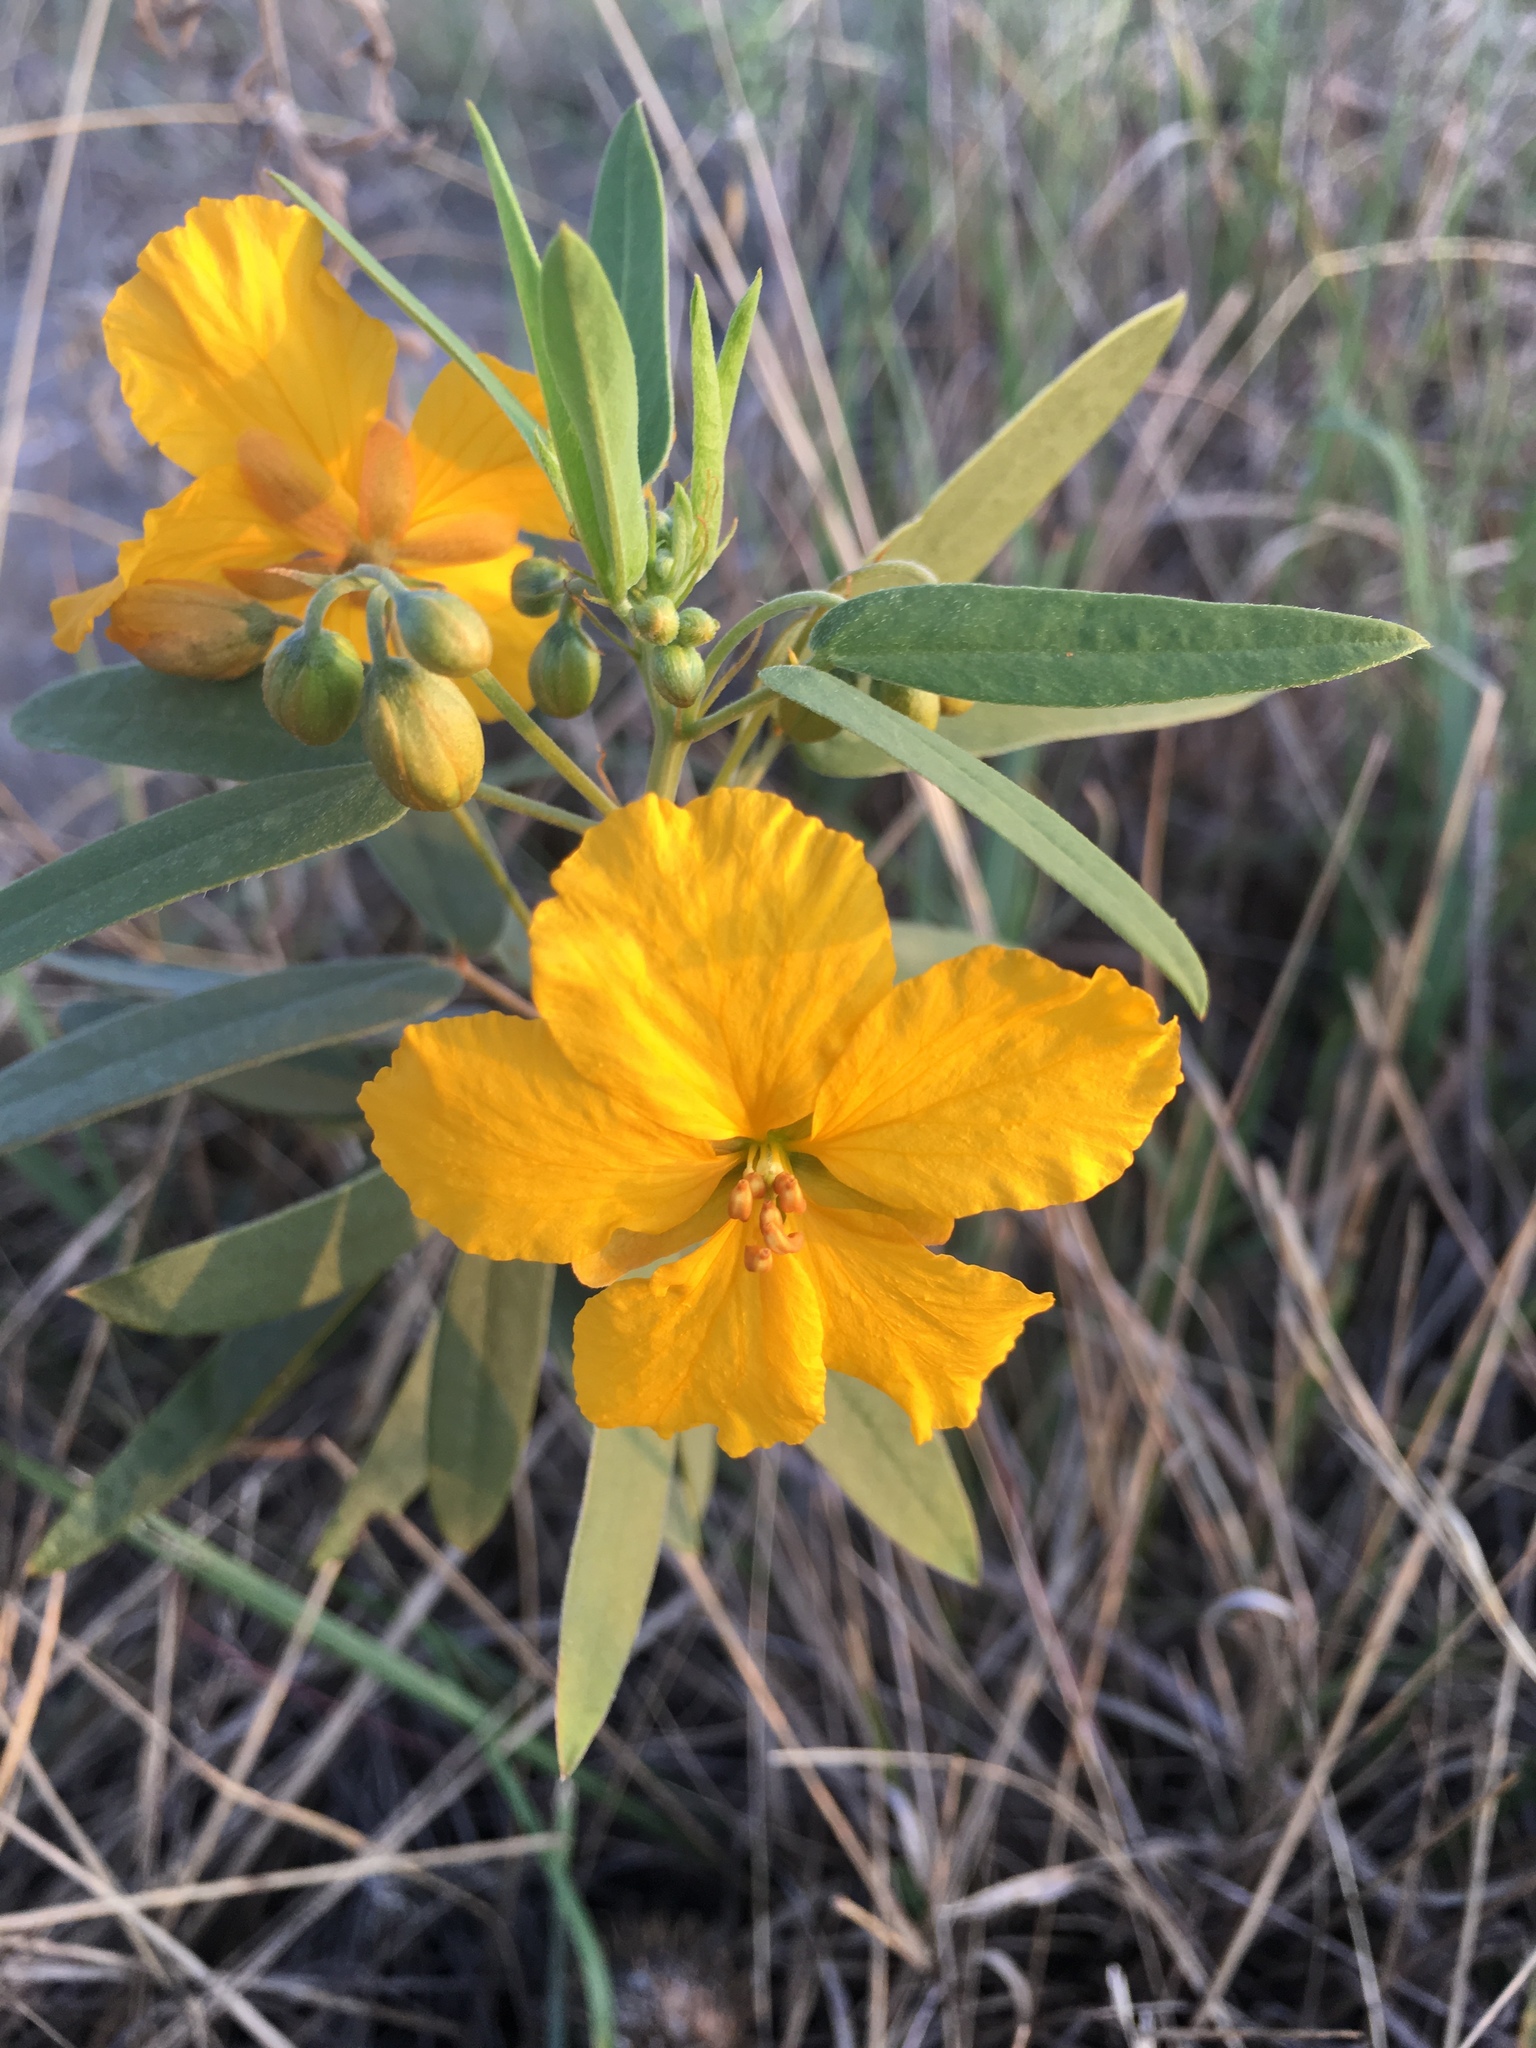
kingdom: Plantae
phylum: Tracheophyta
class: Magnoliopsida
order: Fabales
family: Fabaceae
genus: Senna
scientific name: Senna roemeriana
